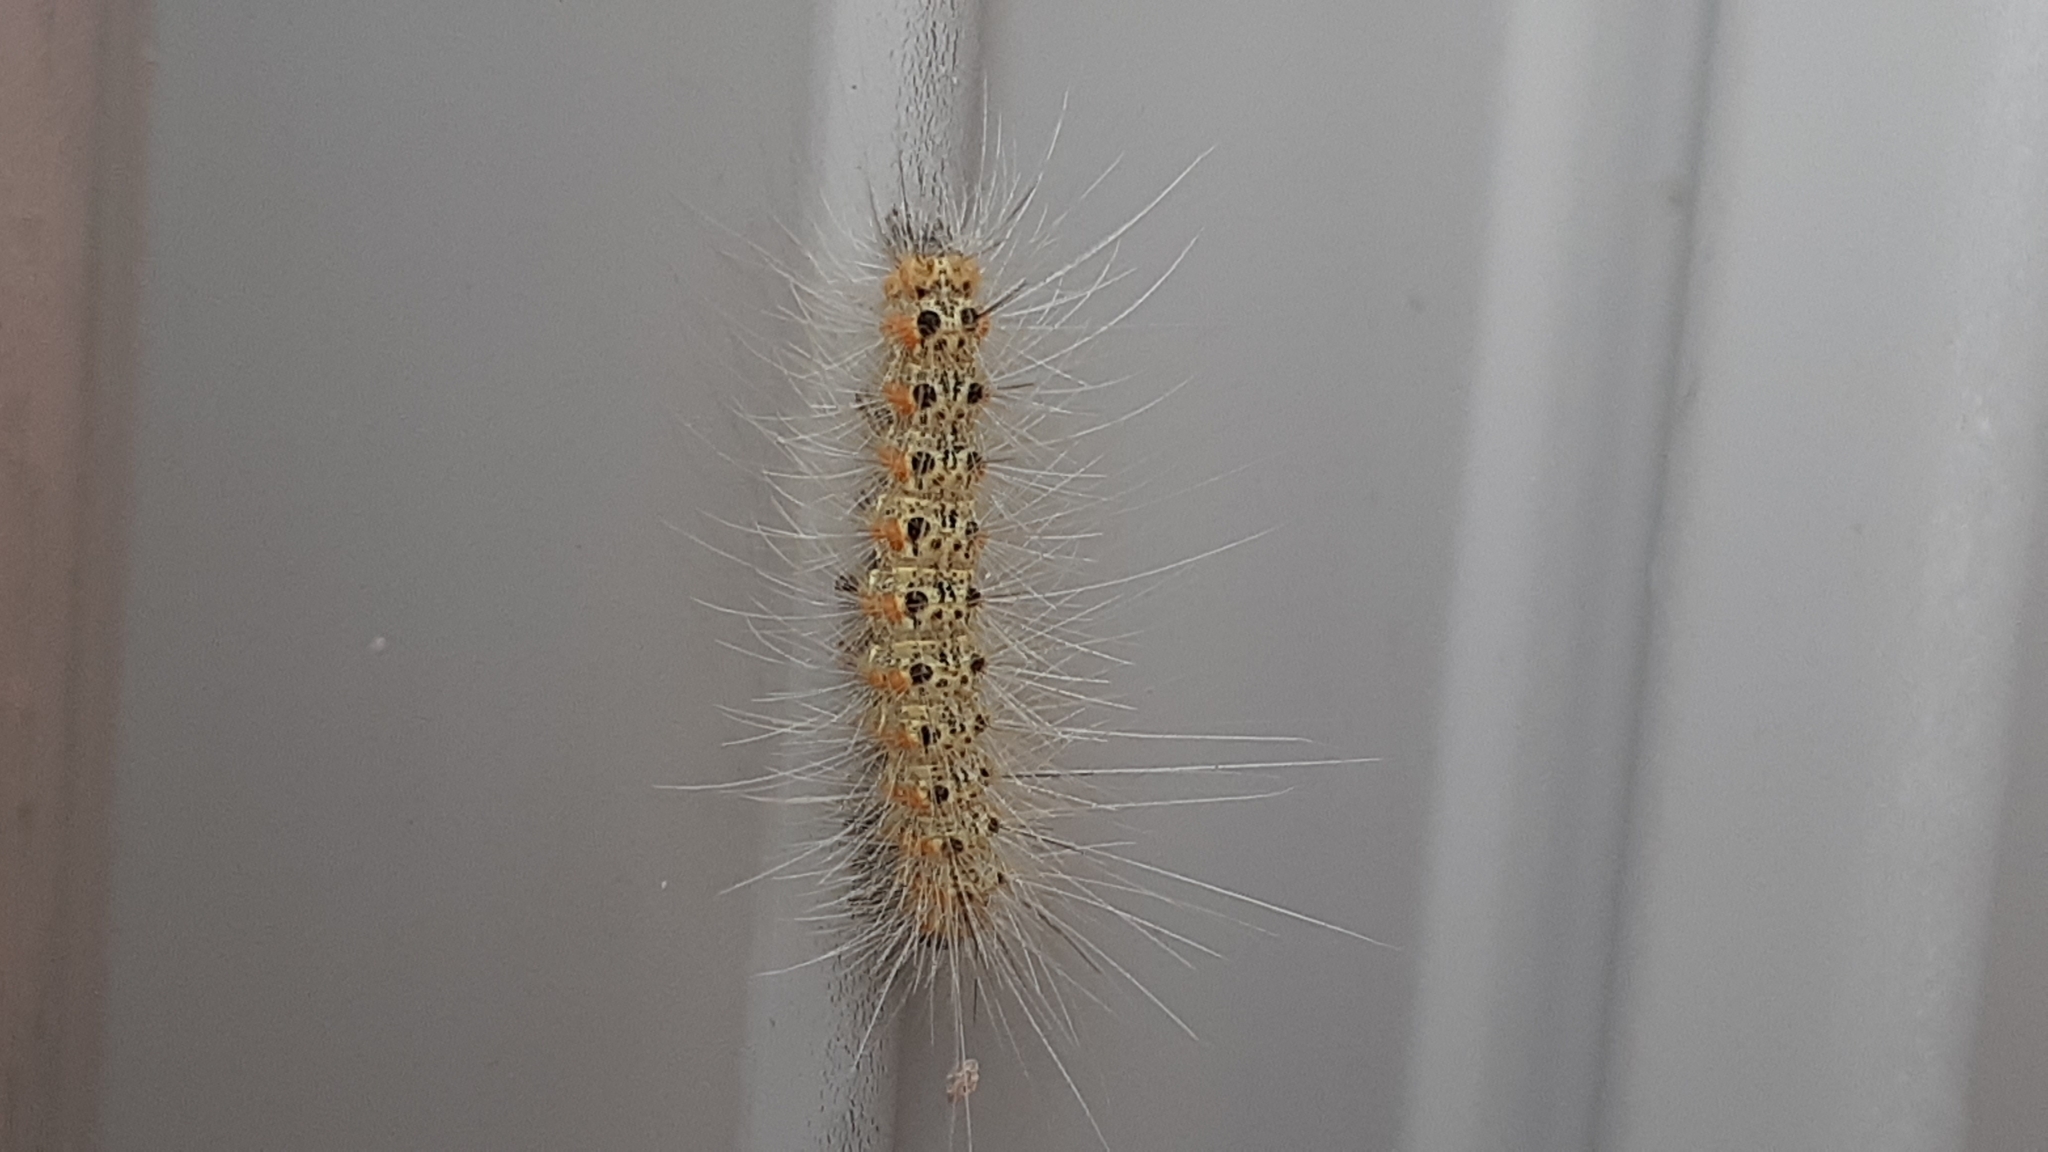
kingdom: Animalia
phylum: Arthropoda
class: Insecta
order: Lepidoptera
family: Erebidae
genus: Hyphantria
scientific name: Hyphantria cunea
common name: American white moth
